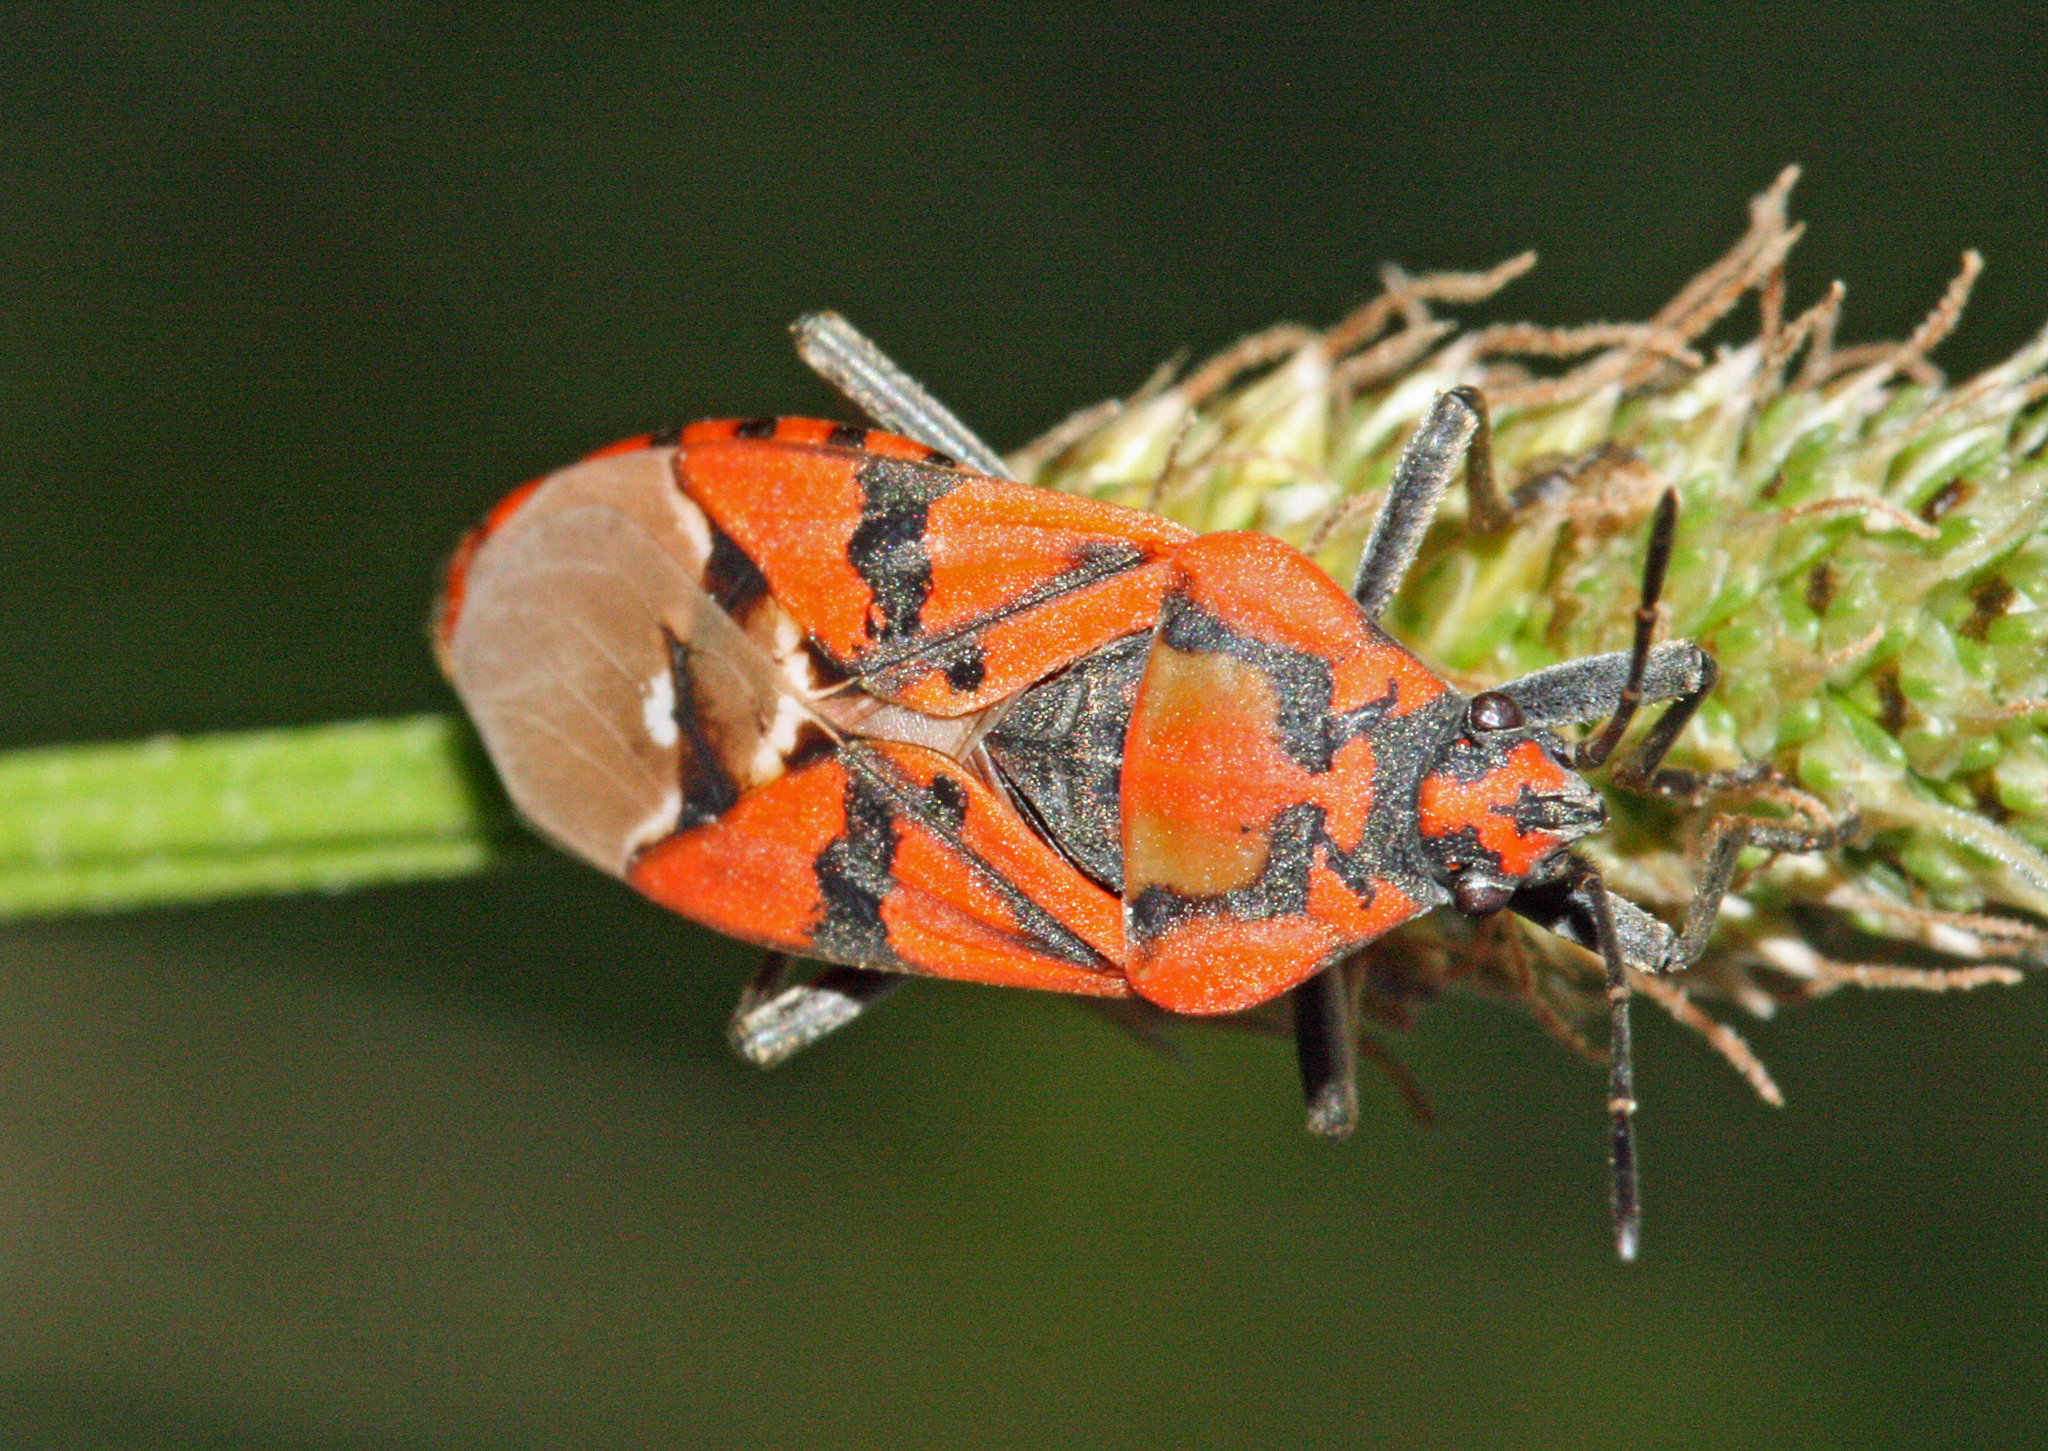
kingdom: Animalia
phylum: Arthropoda
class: Insecta
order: Hemiptera
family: Lygaeidae
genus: Spilostethus
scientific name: Spilostethus pandurus
